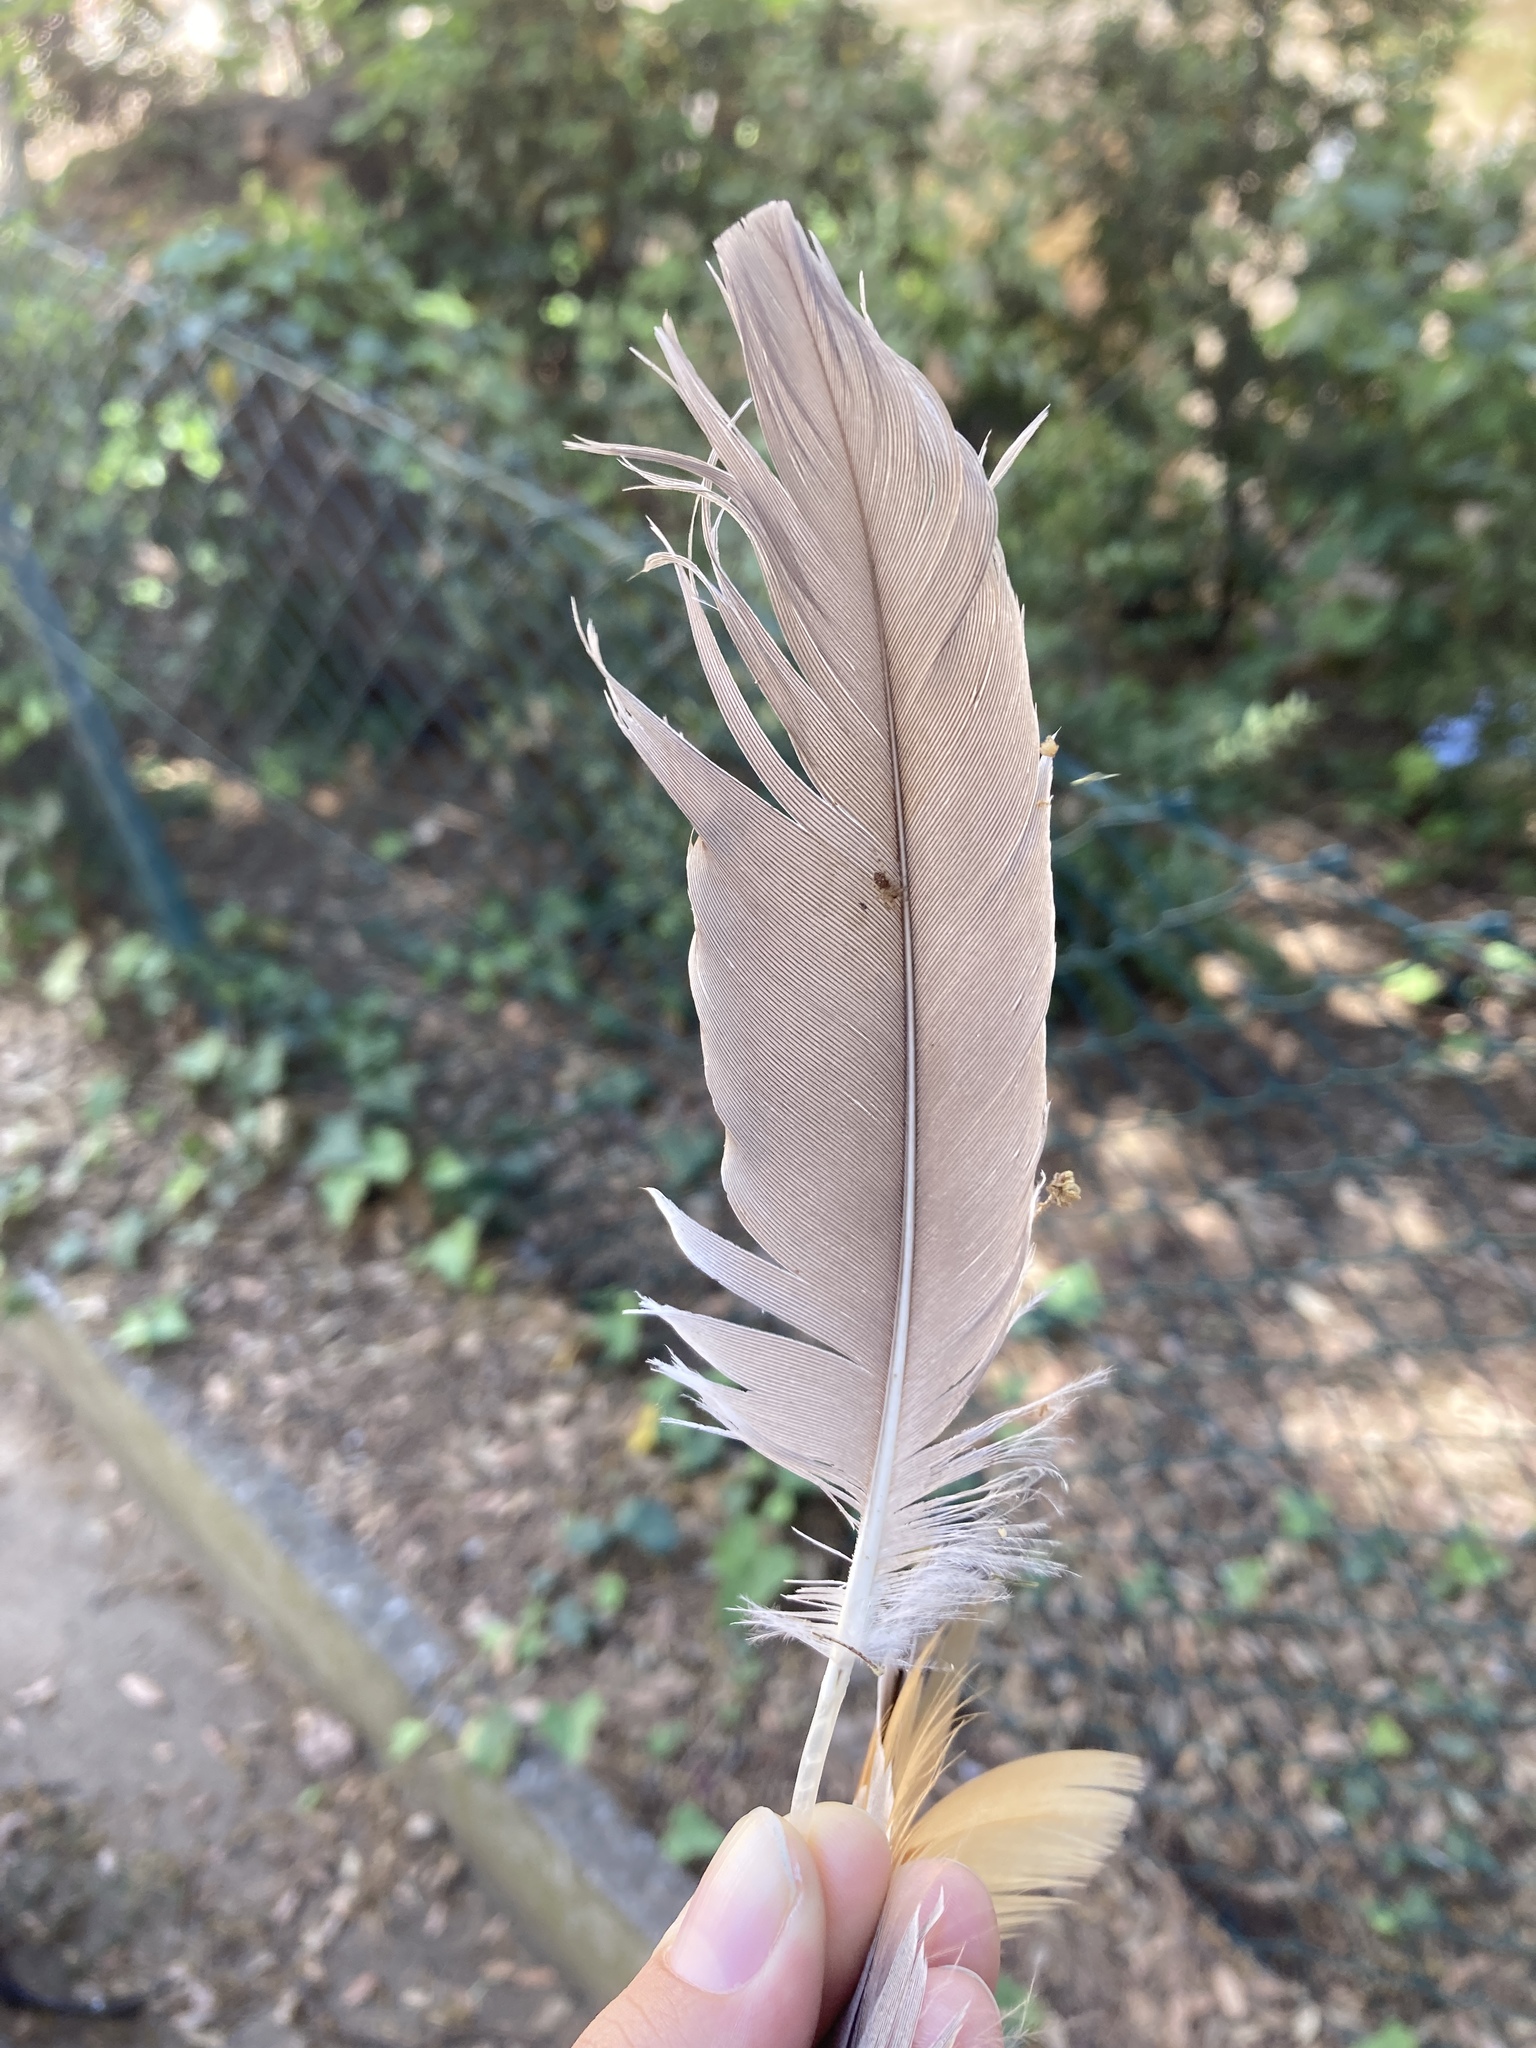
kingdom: Animalia
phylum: Chordata
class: Aves
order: Anseriformes
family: Anatidae
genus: Anser
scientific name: Anser anser
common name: Greylag goose
